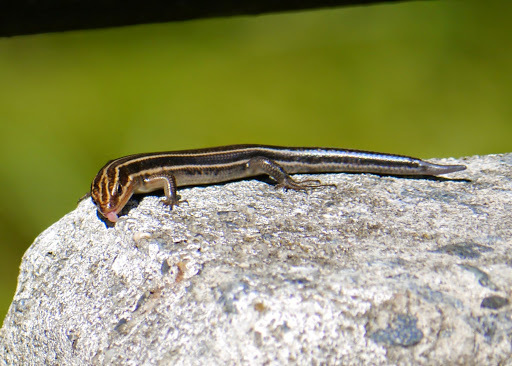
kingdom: Animalia
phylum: Chordata
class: Squamata
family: Scincidae
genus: Plestiodon
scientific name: Plestiodon fasciatus
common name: Five-lined skink
